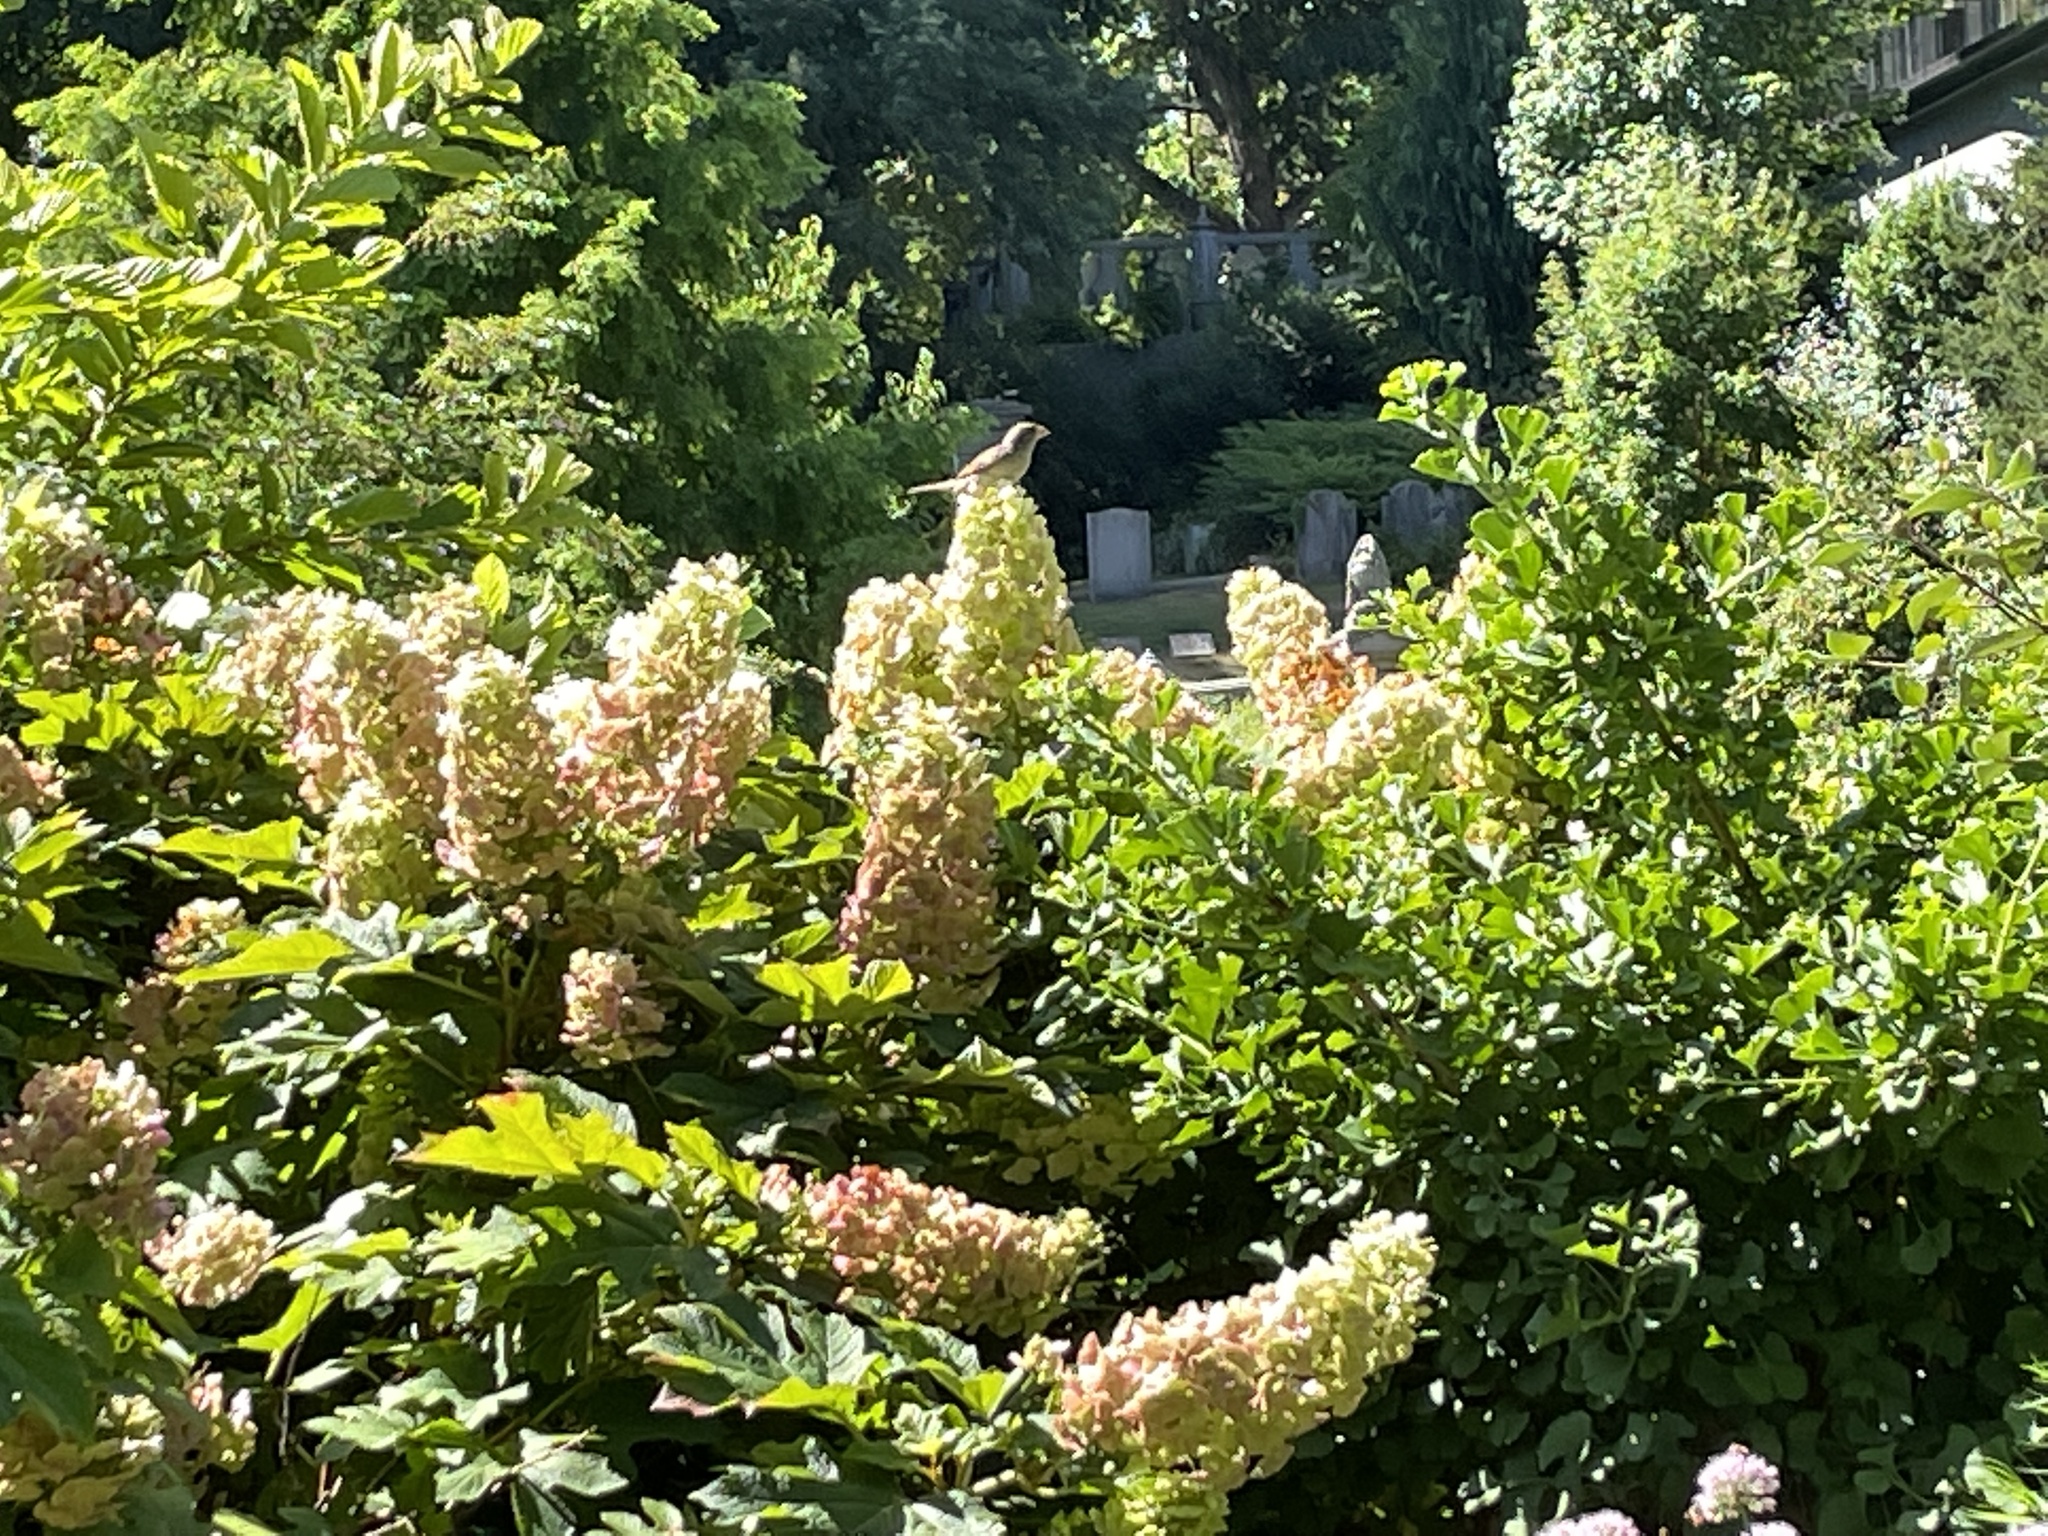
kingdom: Animalia
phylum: Chordata
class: Aves
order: Passeriformes
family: Passeridae
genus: Passer
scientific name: Passer domesticus
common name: House sparrow
